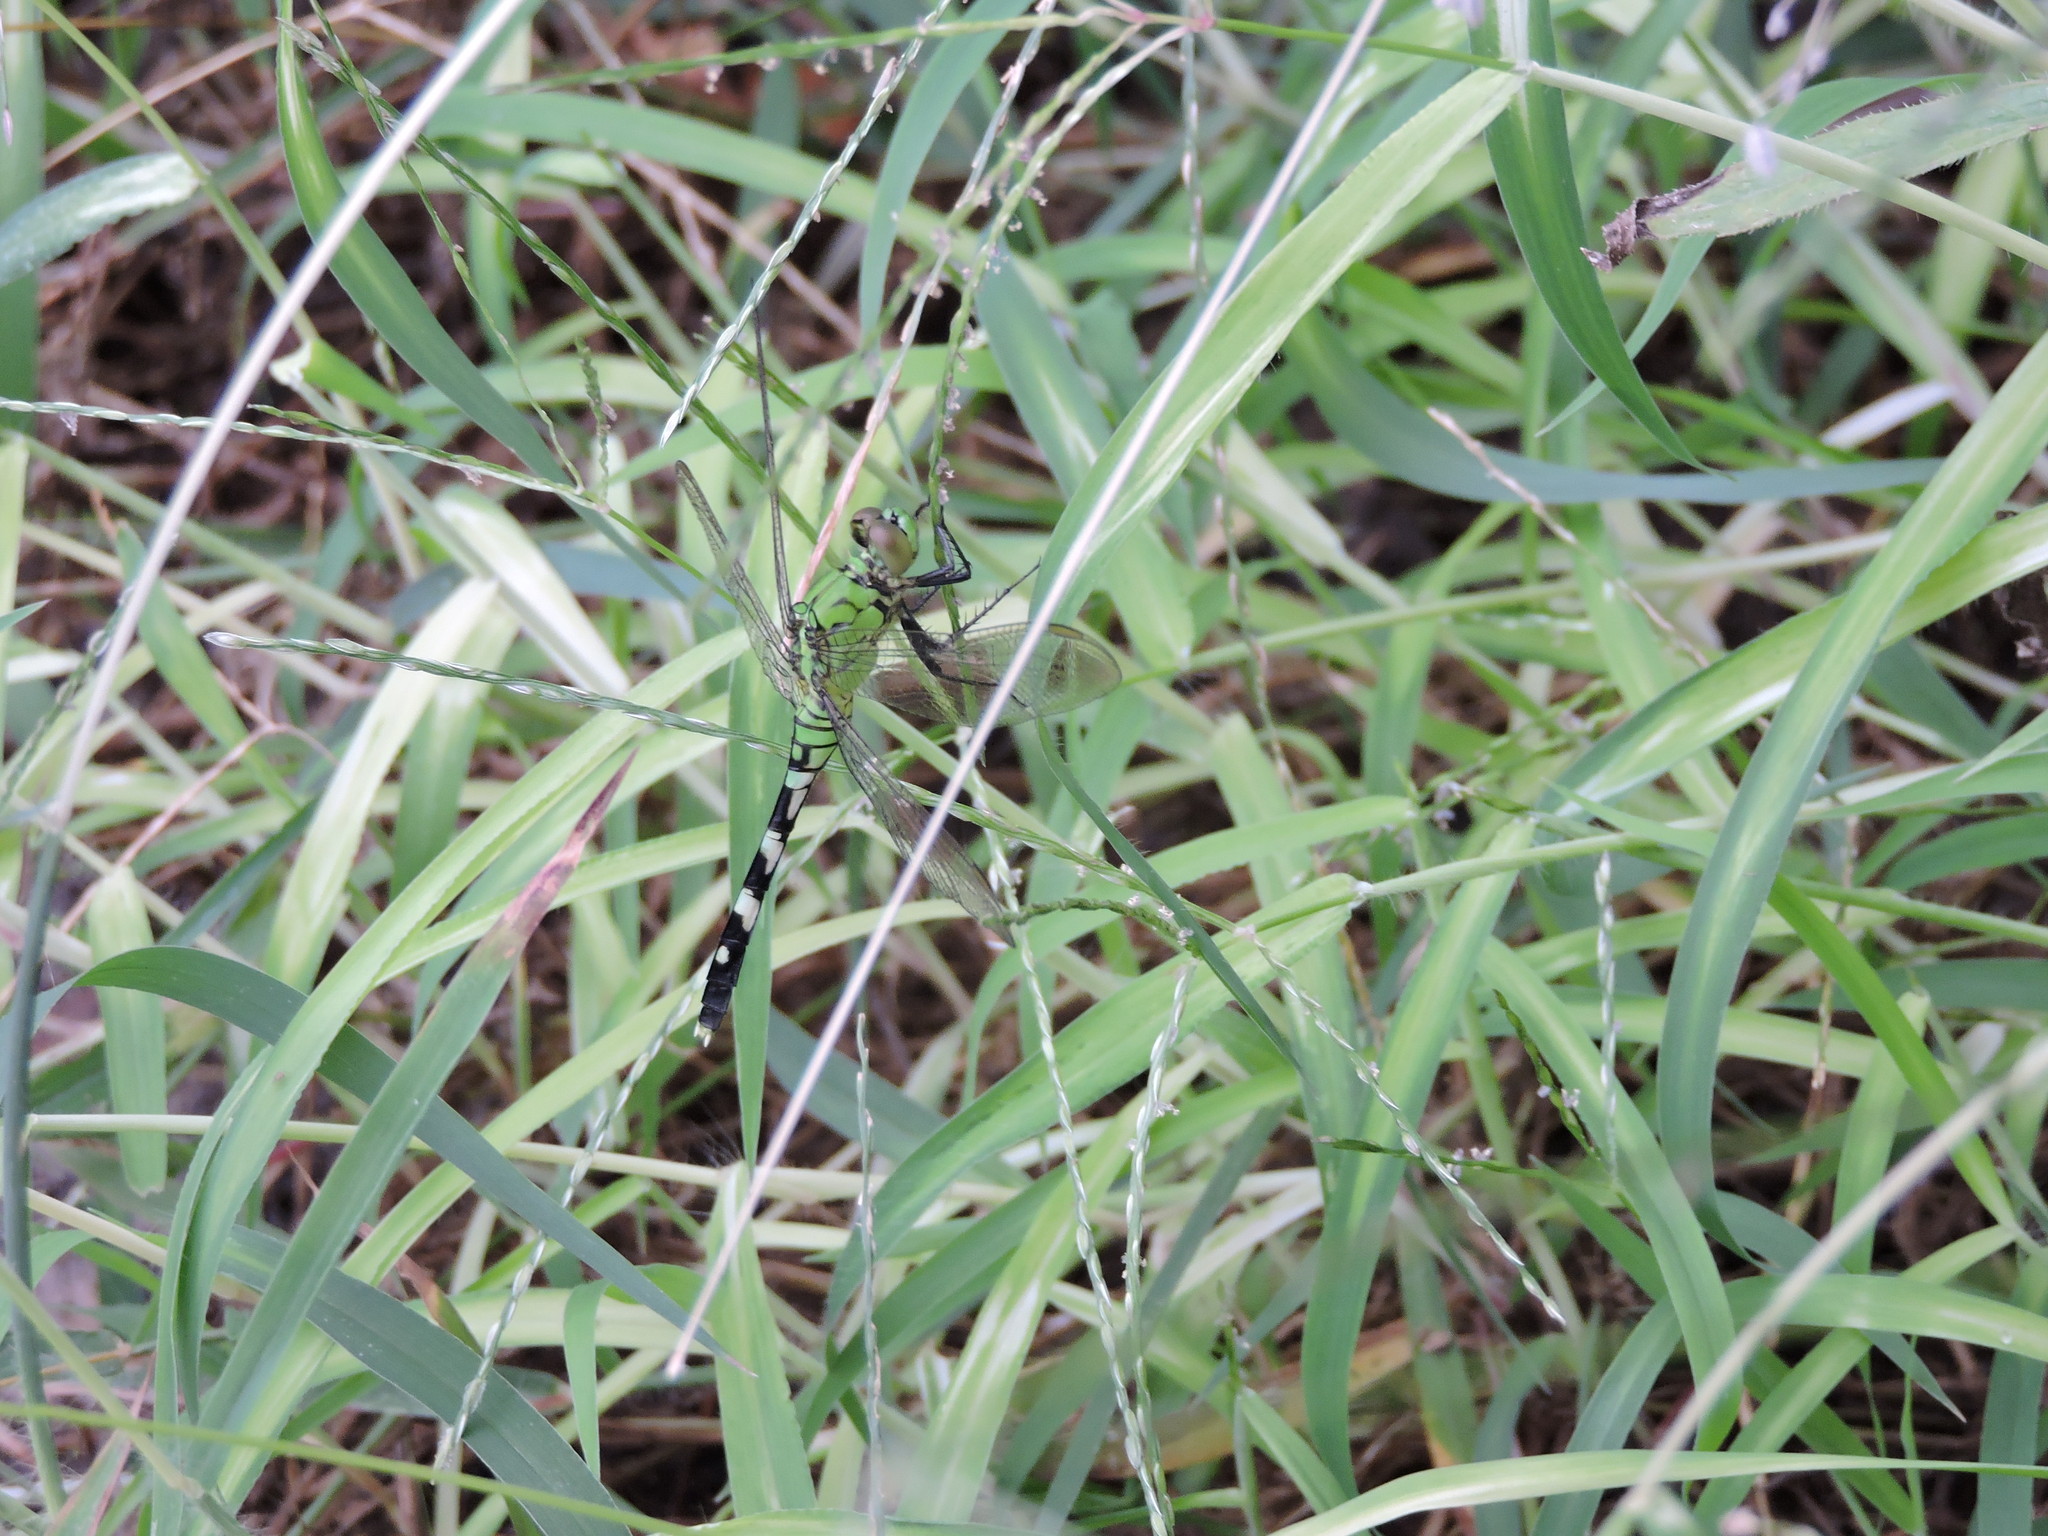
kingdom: Animalia
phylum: Arthropoda
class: Insecta
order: Odonata
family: Libellulidae
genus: Erythemis
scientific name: Erythemis simplicicollis
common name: Eastern pondhawk
